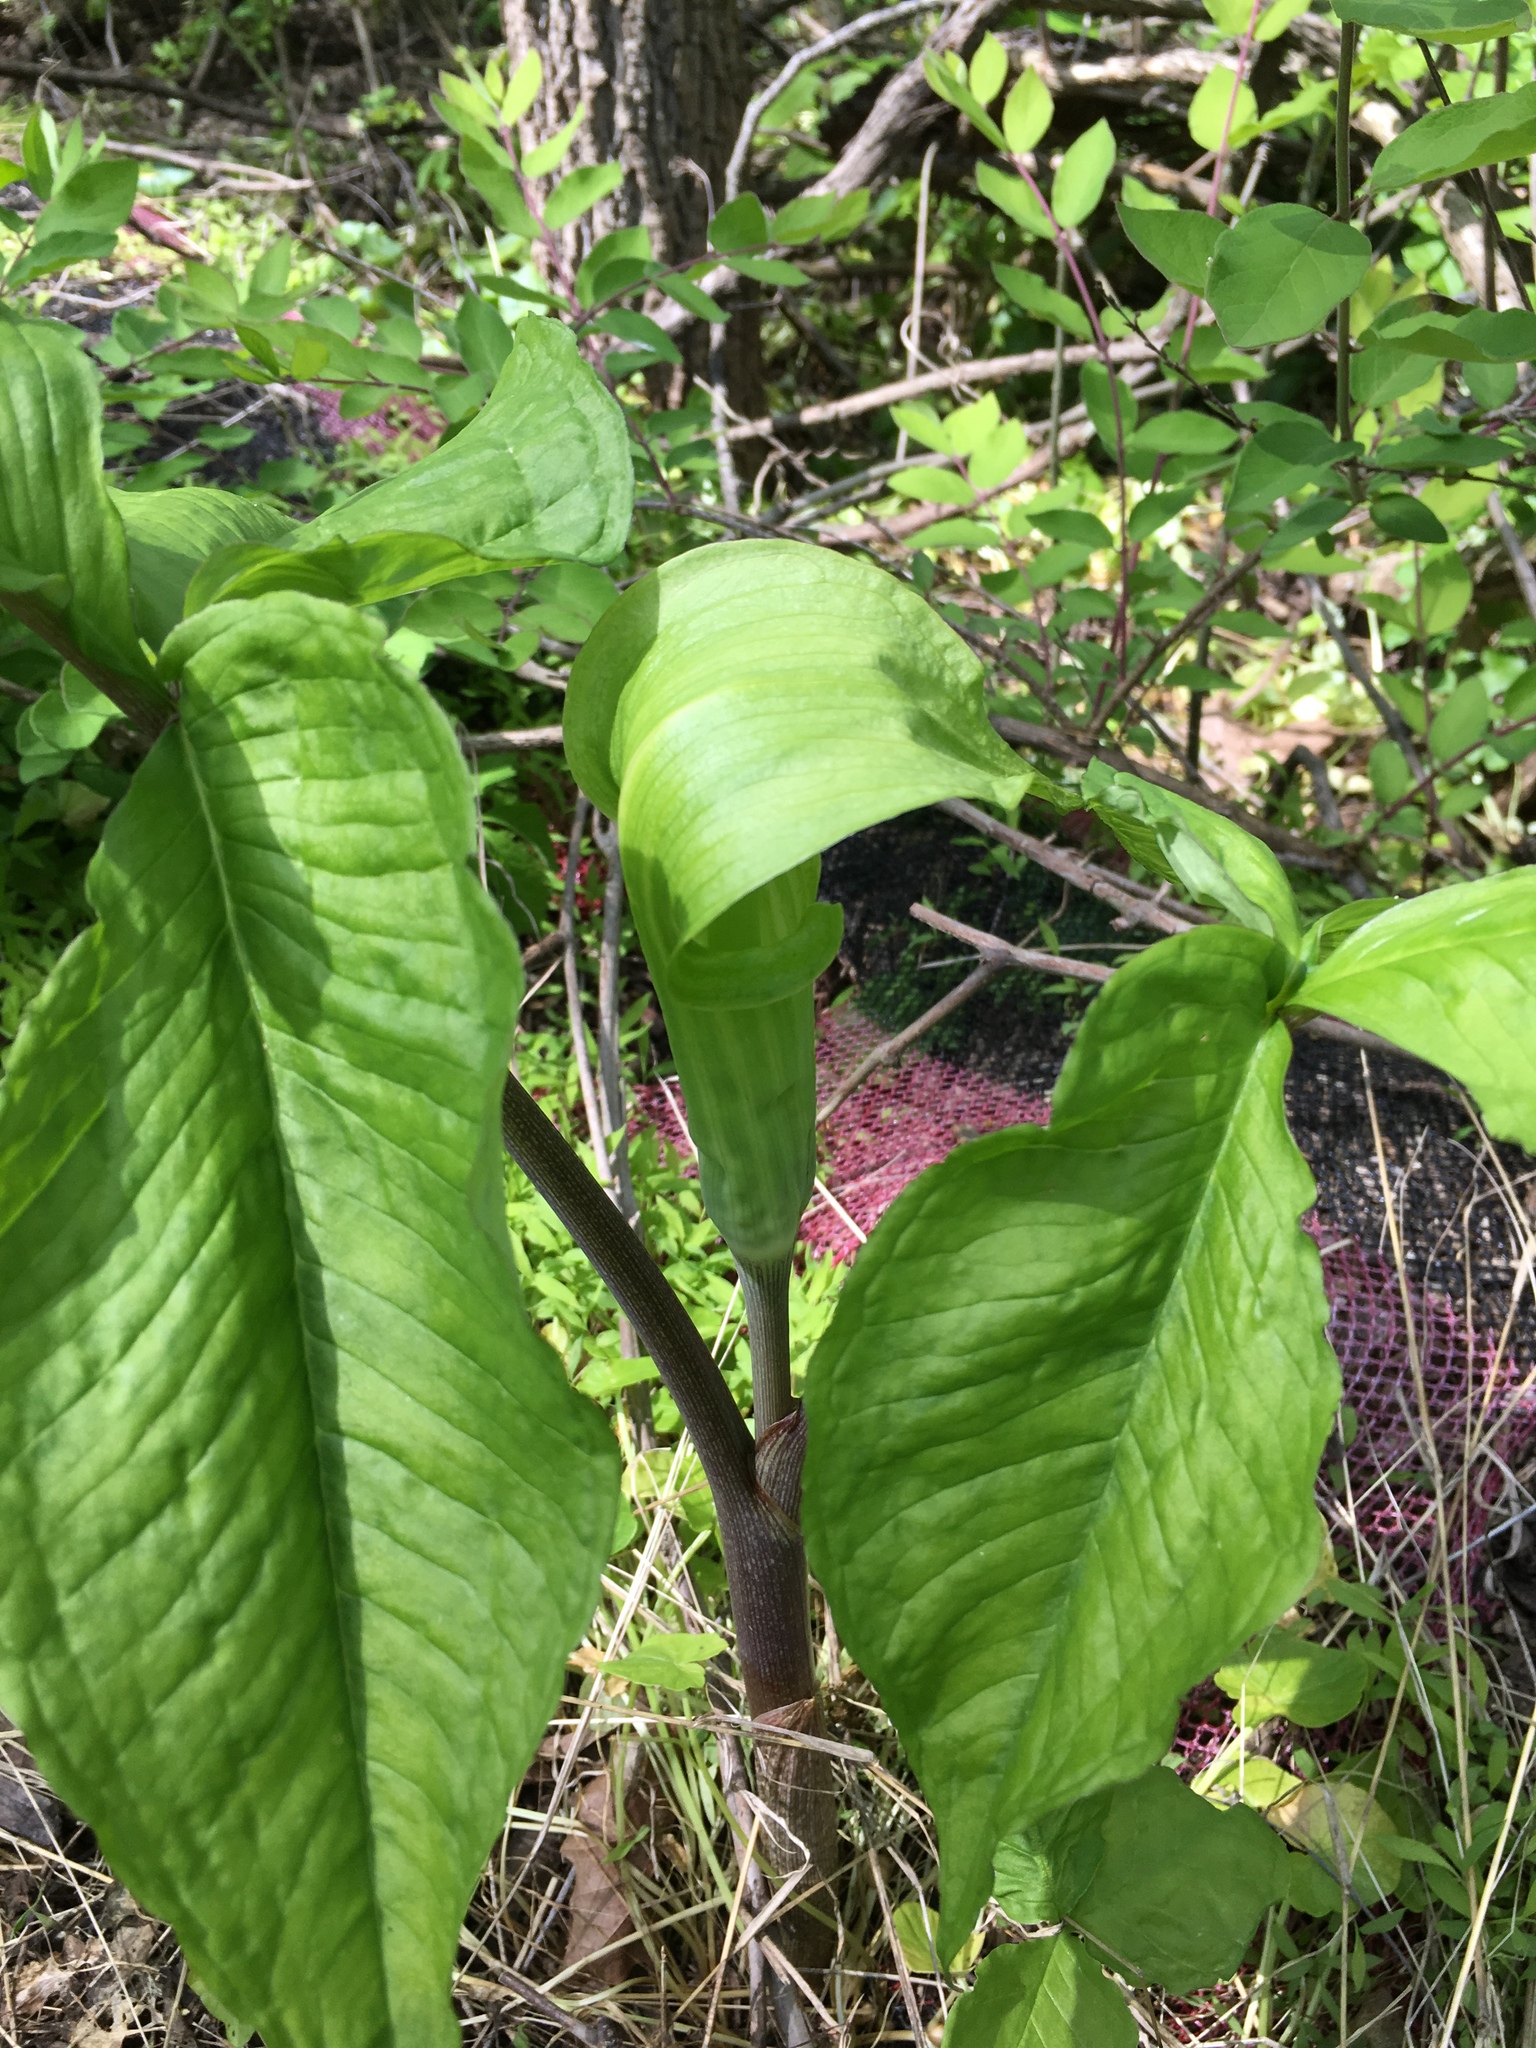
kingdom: Plantae
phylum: Tracheophyta
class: Liliopsida
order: Alismatales
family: Araceae
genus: Arisaema
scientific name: Arisaema triphyllum
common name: Jack-in-the-pulpit
